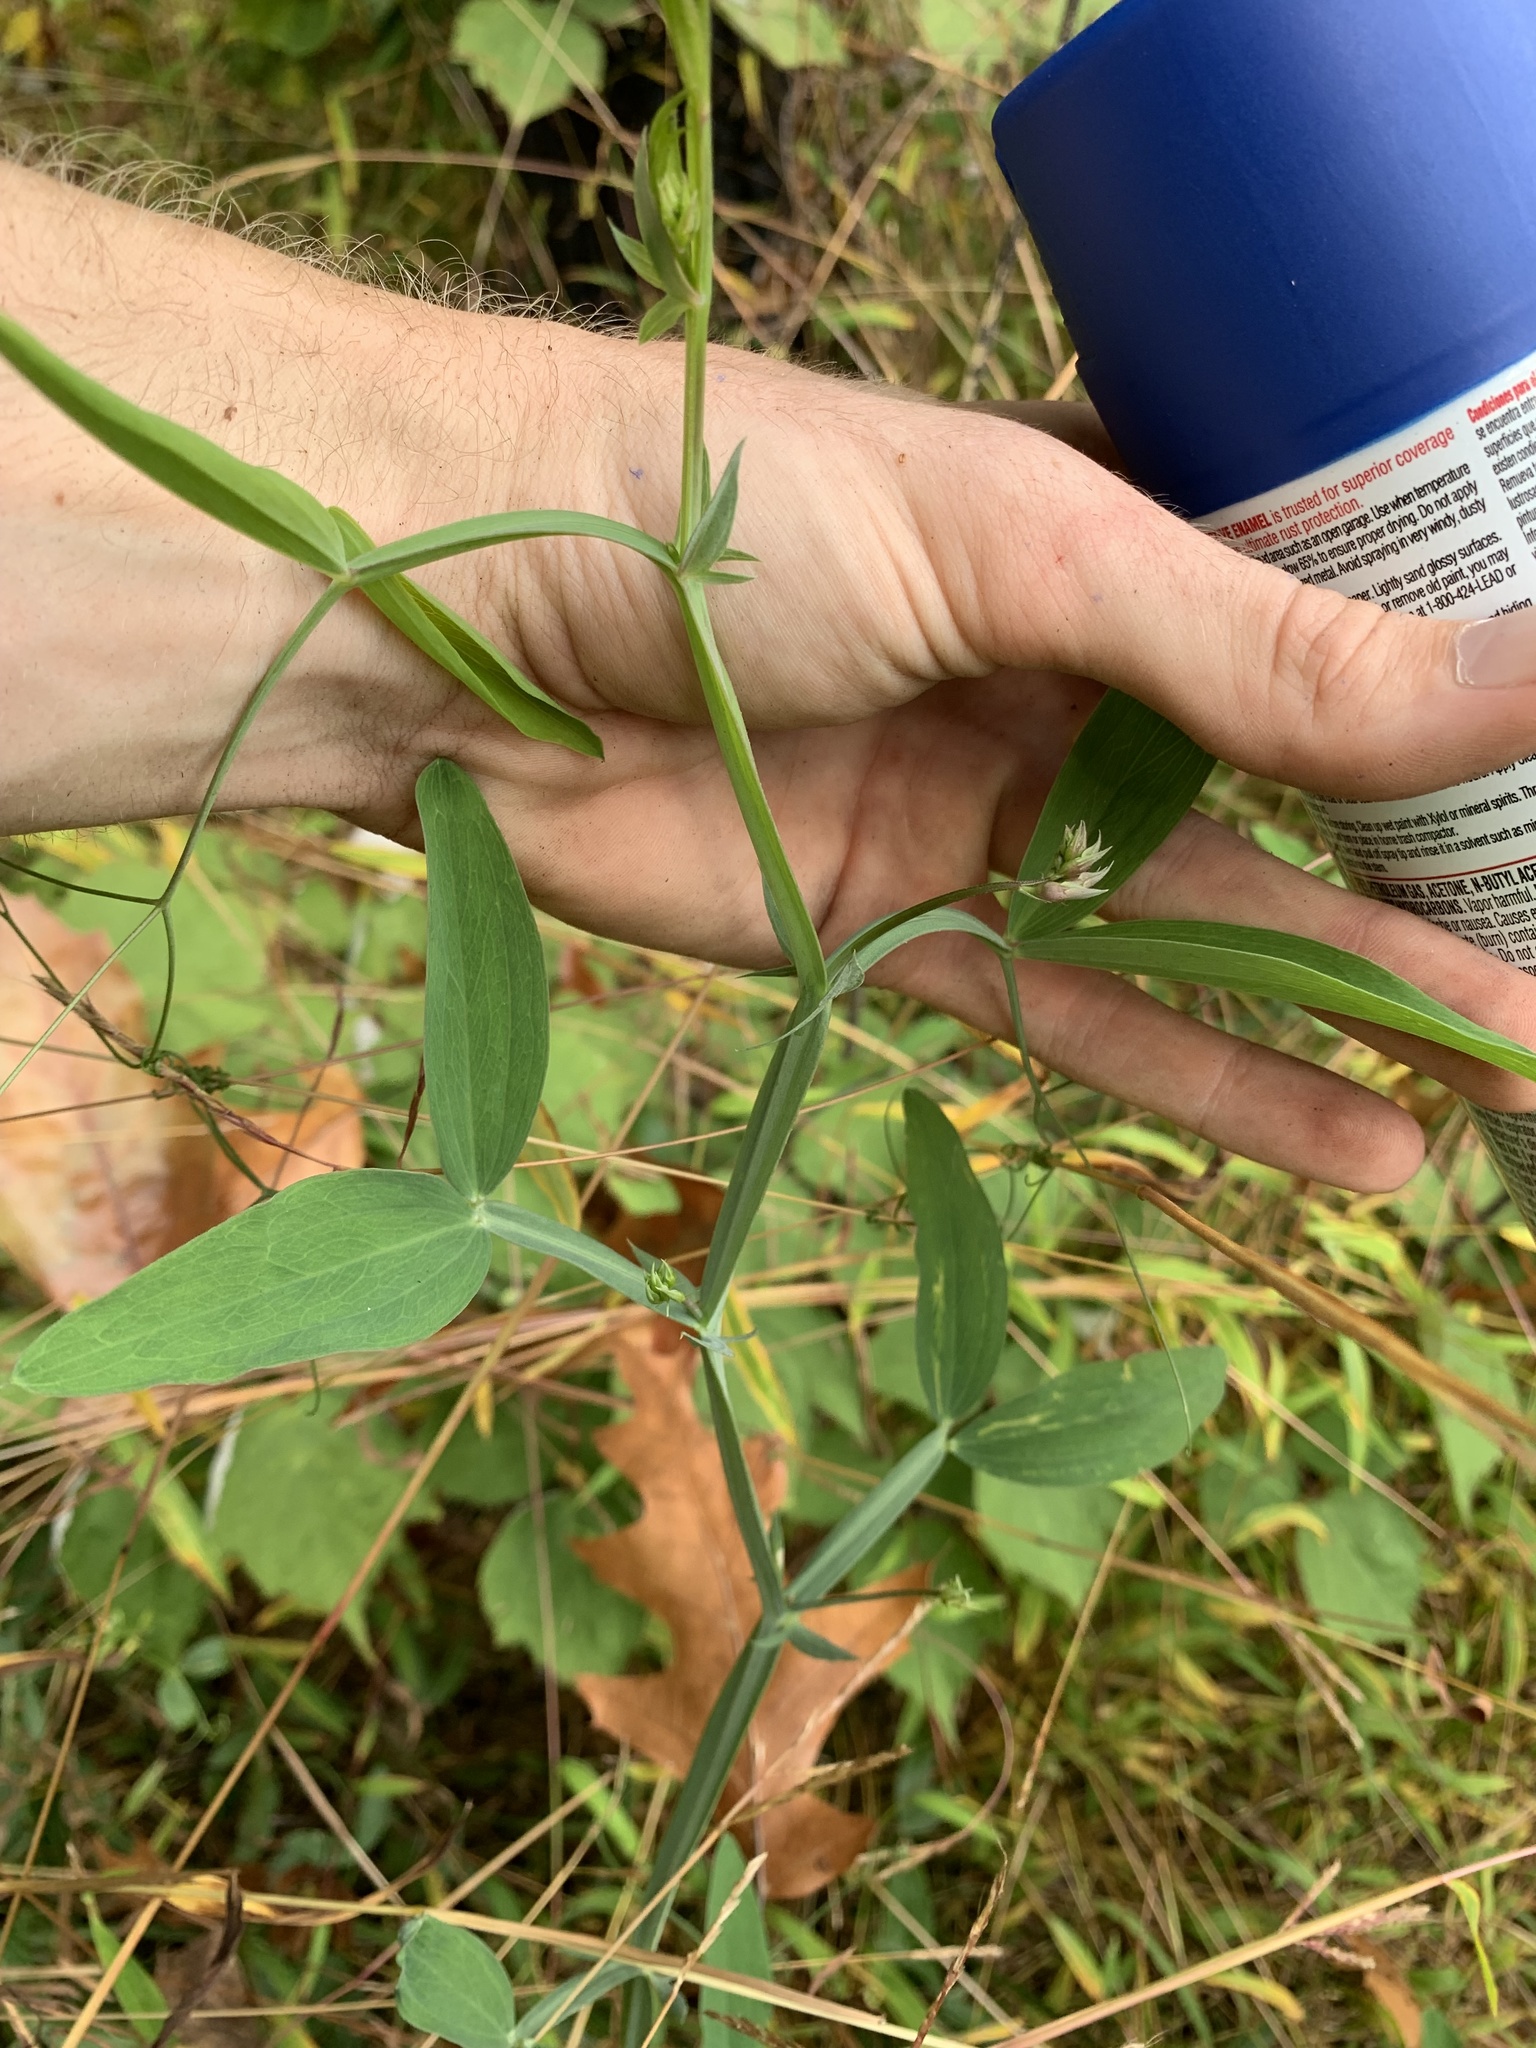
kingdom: Plantae
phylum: Tracheophyta
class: Magnoliopsida
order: Fabales
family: Fabaceae
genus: Lathyrus
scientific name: Lathyrus latifolius
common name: Perennial pea
